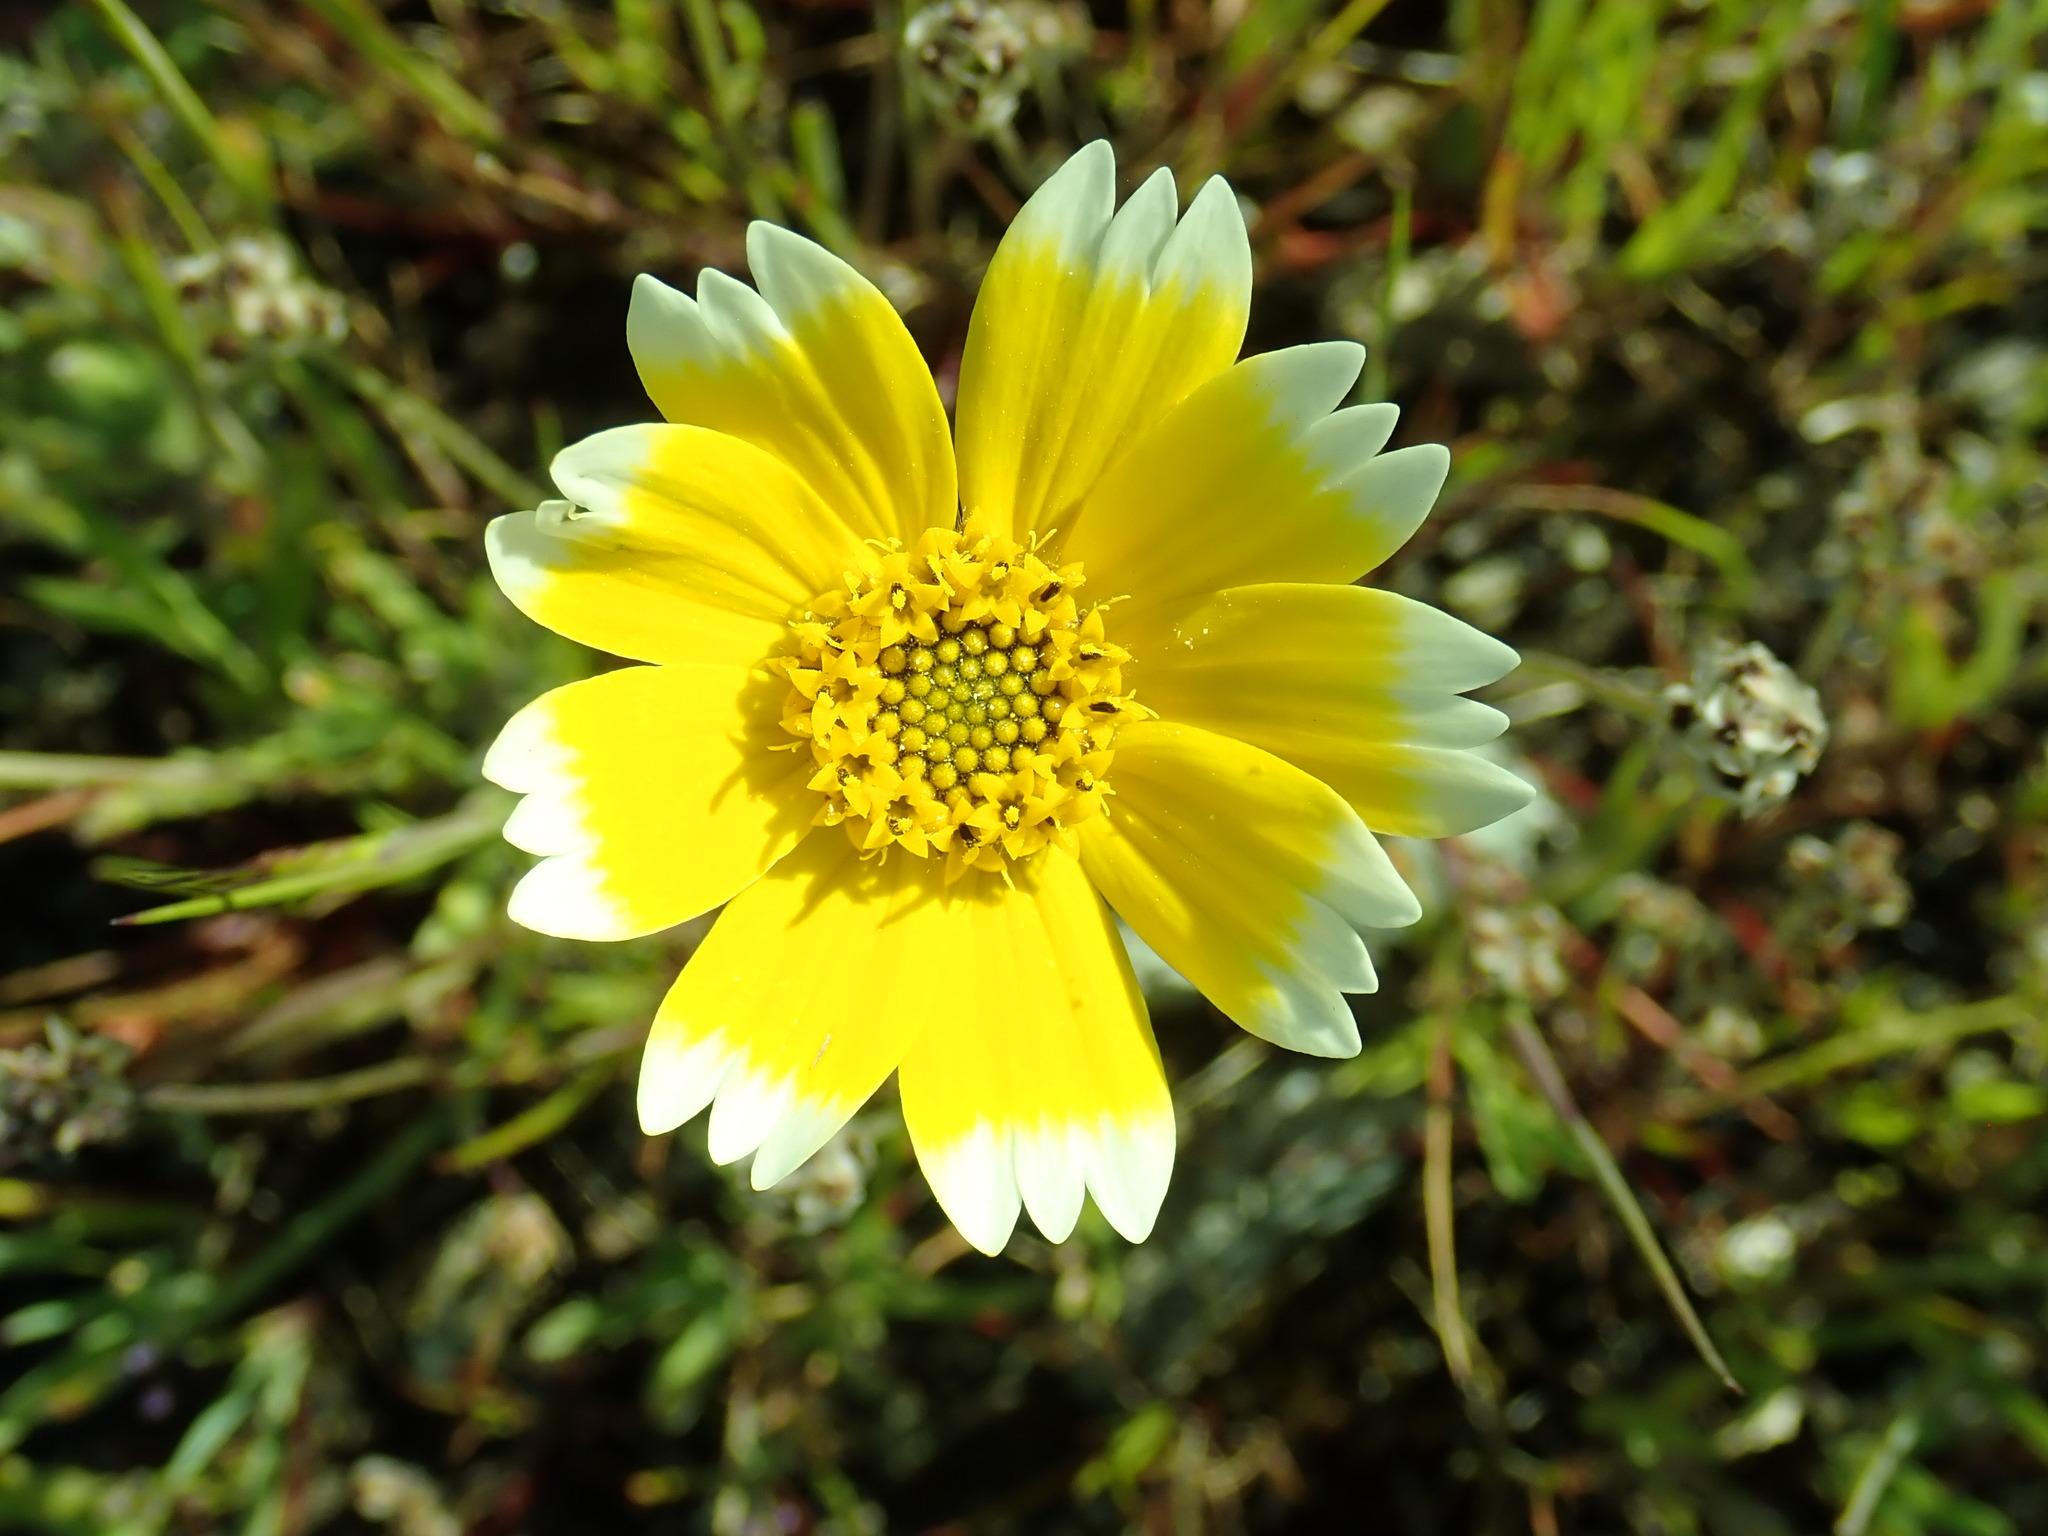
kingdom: Plantae
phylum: Tracheophyta
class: Magnoliopsida
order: Asterales
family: Asteraceae
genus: Layia
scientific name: Layia platyglossa
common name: Tidy-tips
